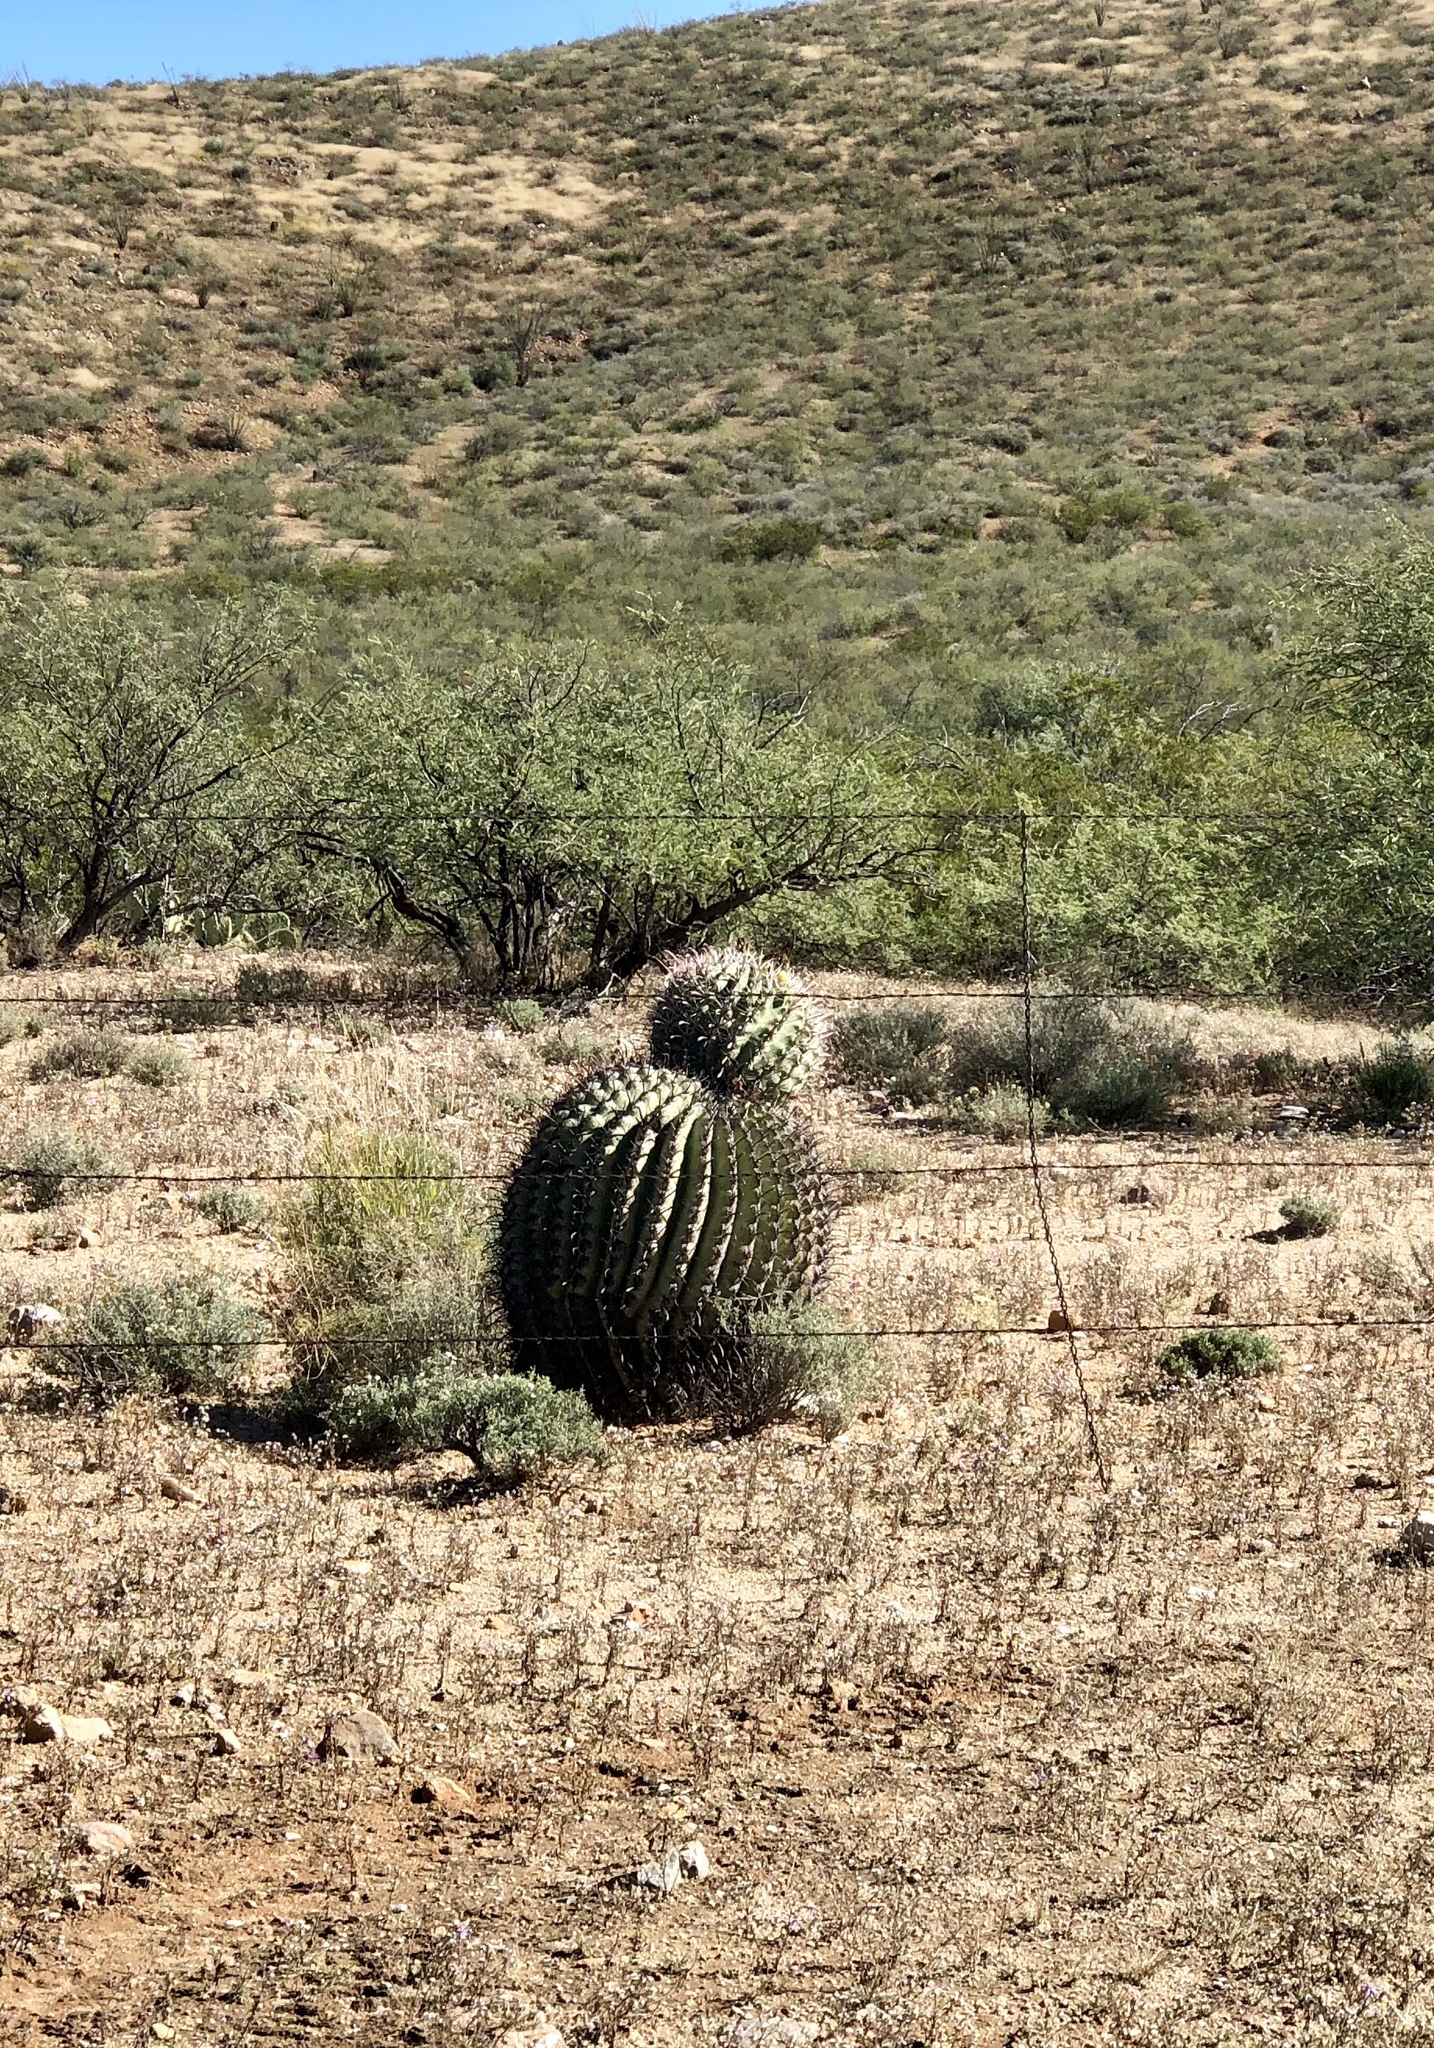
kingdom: Plantae
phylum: Tracheophyta
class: Magnoliopsida
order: Caryophyllales
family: Cactaceae
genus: Ferocactus
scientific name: Ferocactus wislizeni
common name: Candy barrel cactus
